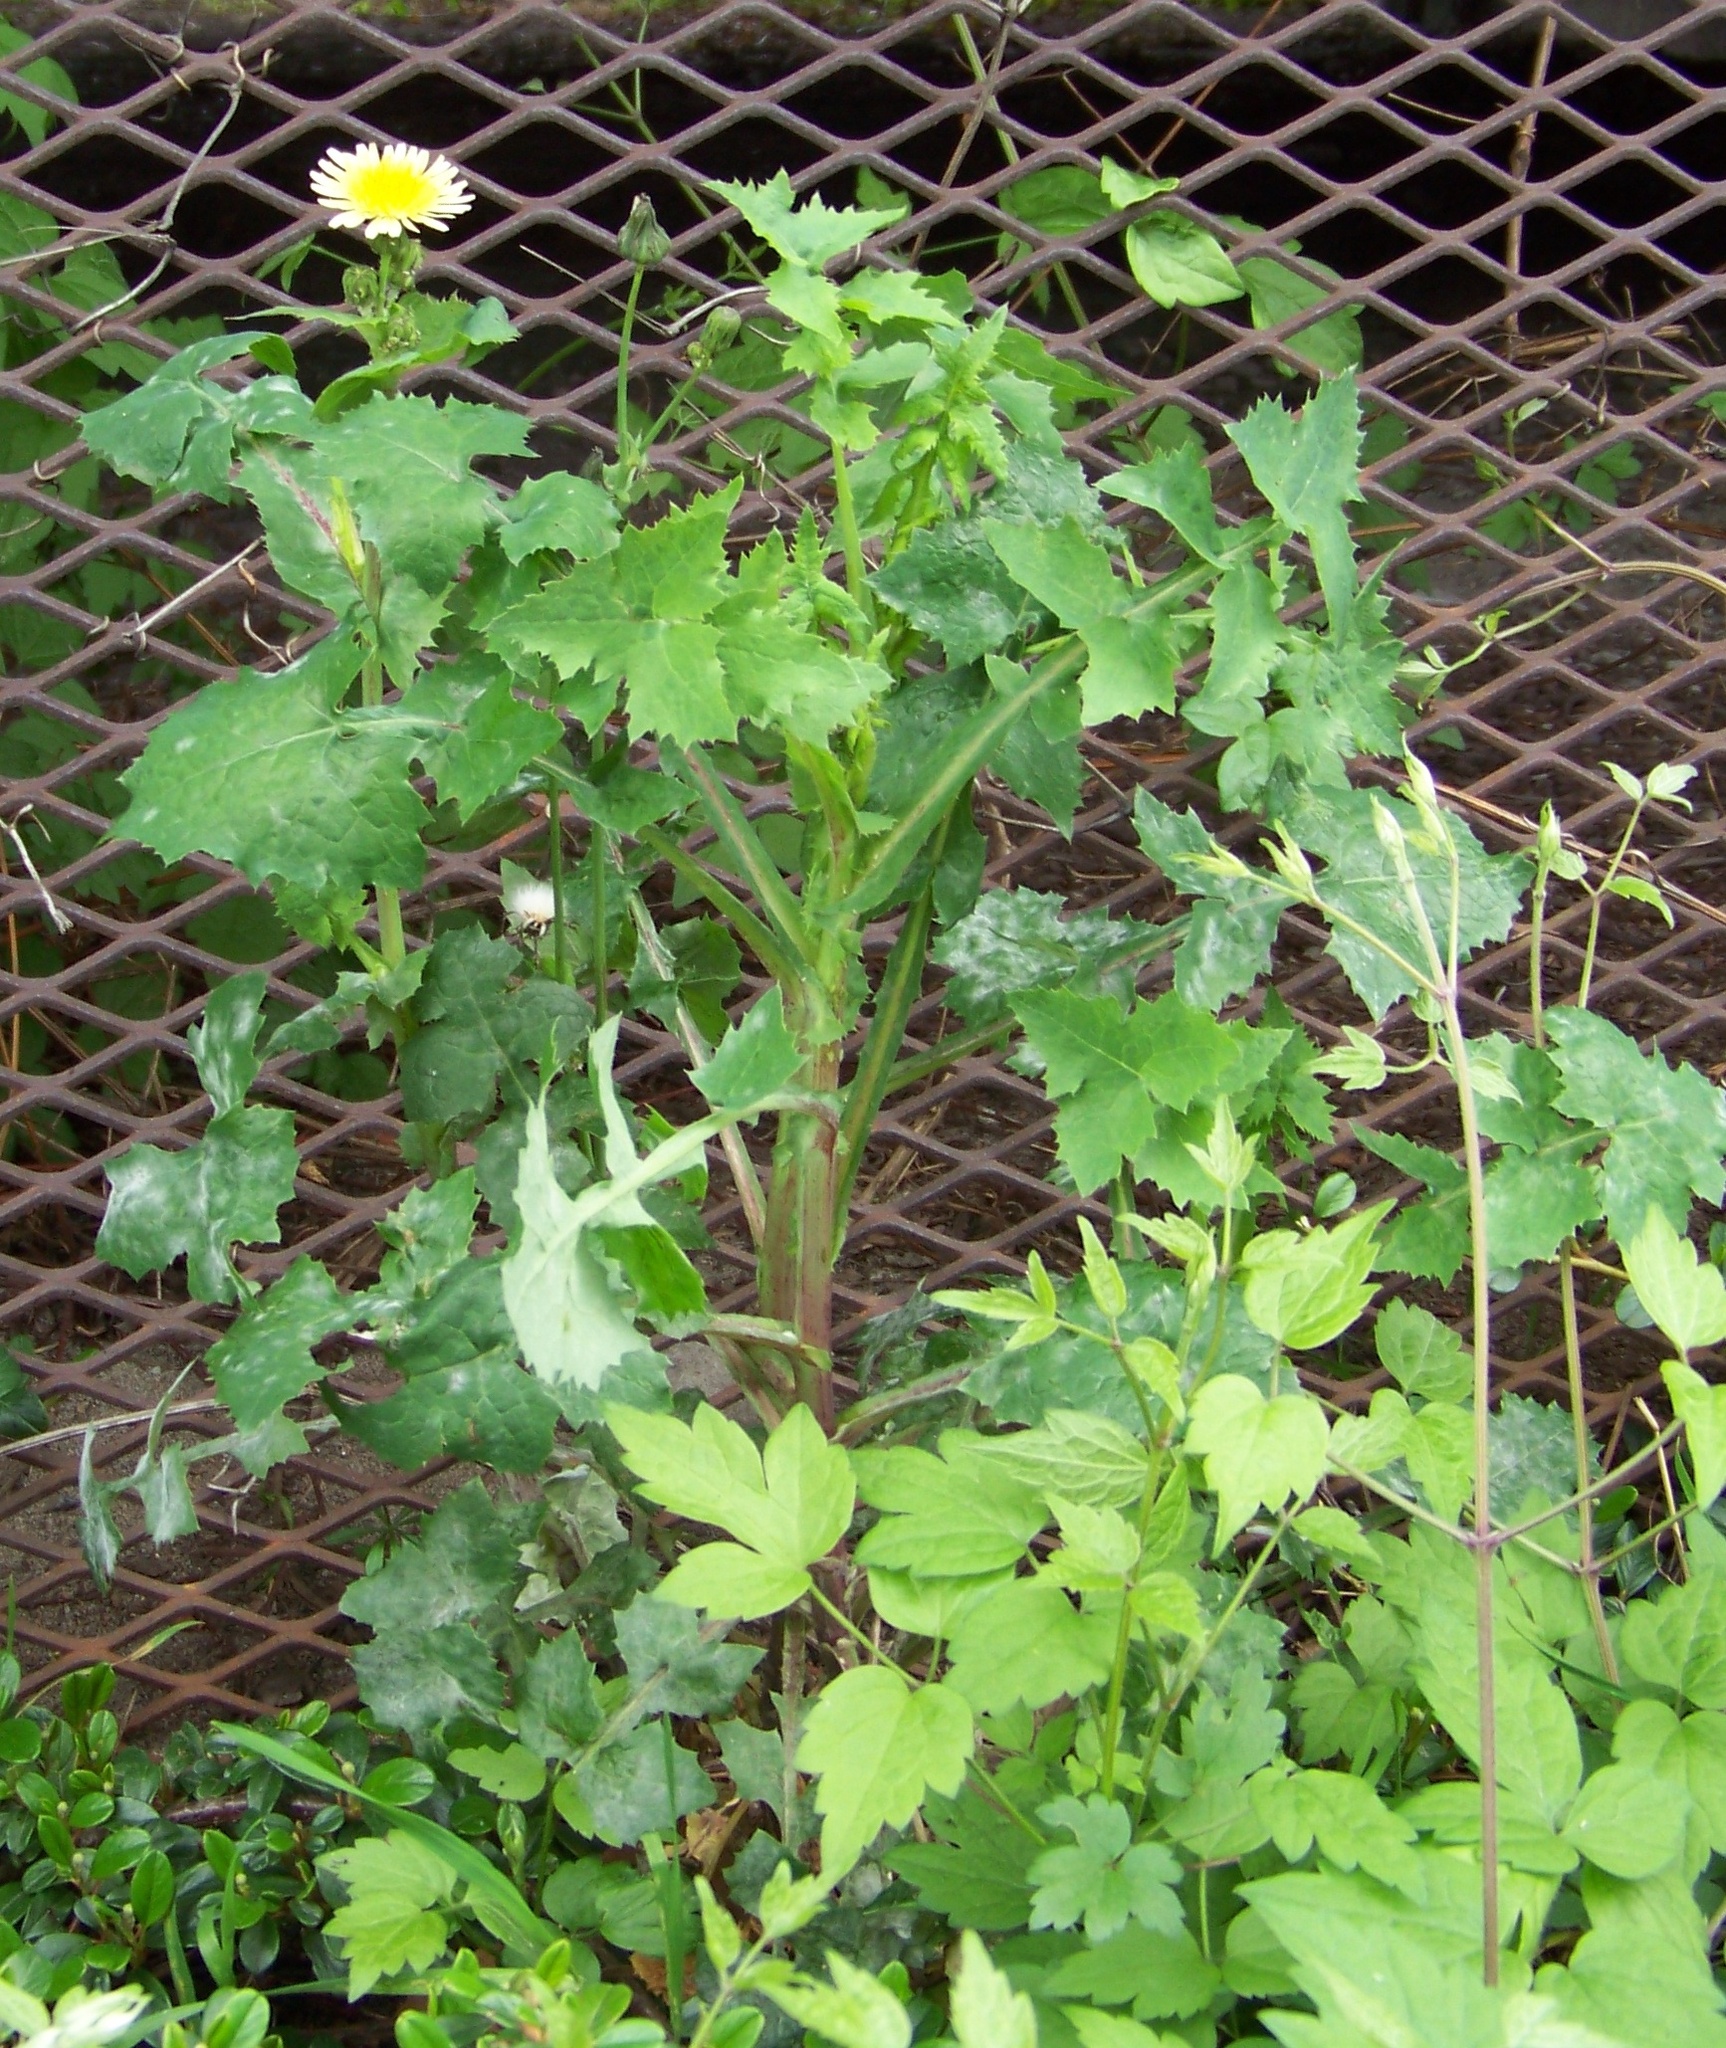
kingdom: Plantae
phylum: Tracheophyta
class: Magnoliopsida
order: Asterales
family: Asteraceae
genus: Sonchus
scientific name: Sonchus asper
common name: Prickly sow-thistle
